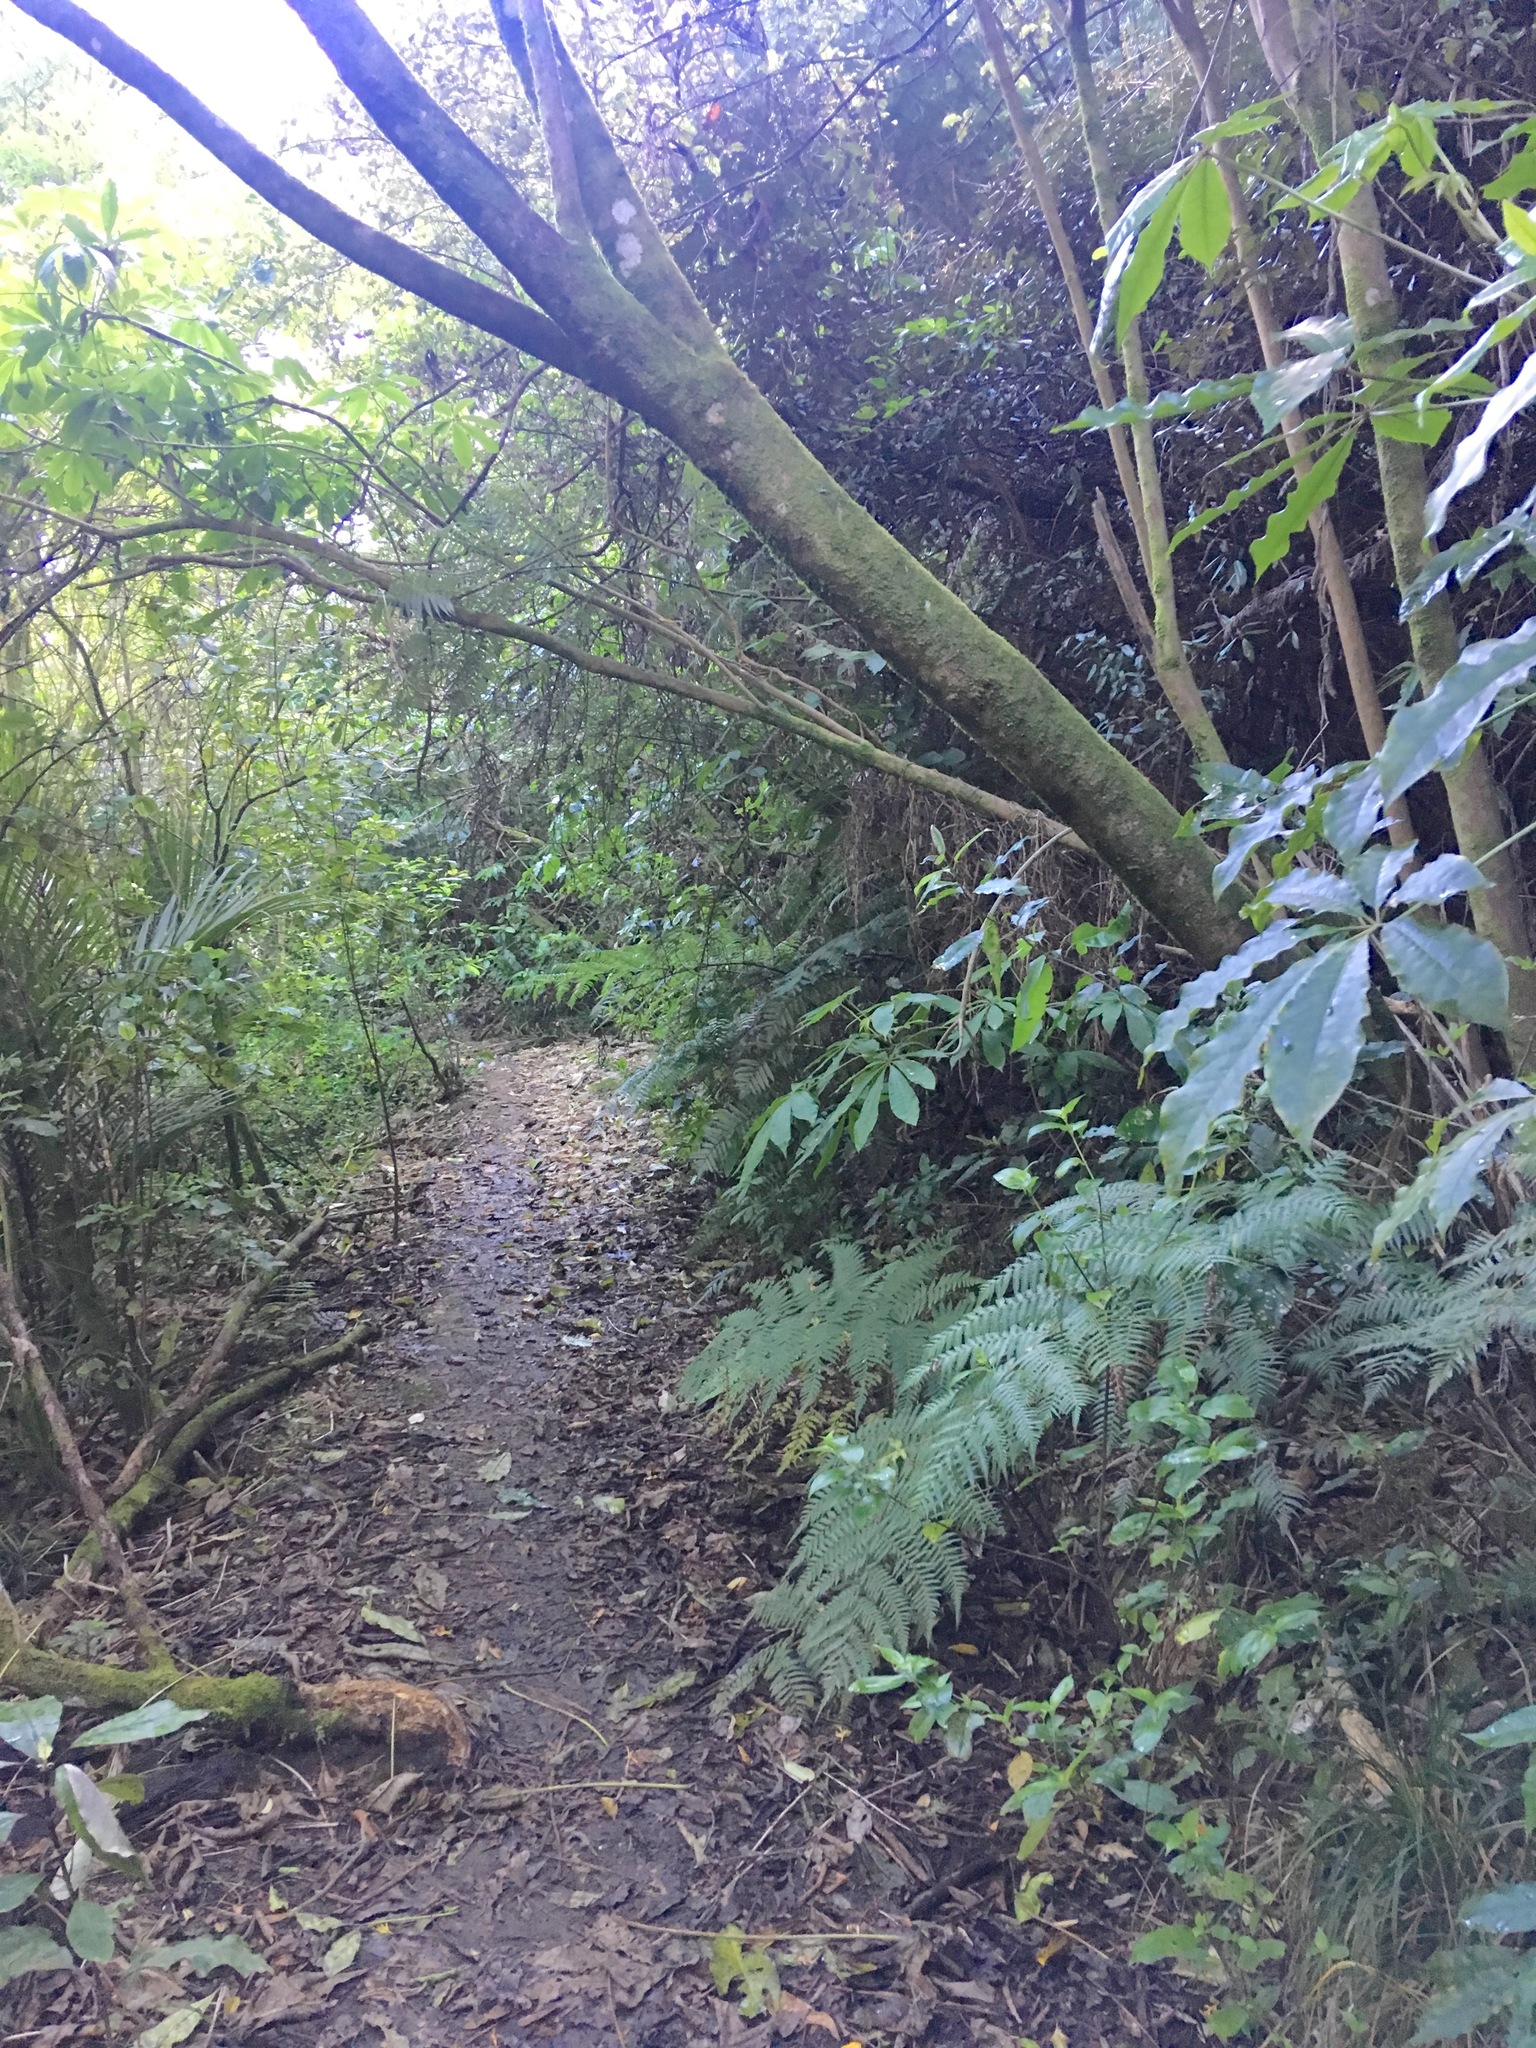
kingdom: Plantae
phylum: Tracheophyta
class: Magnoliopsida
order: Apiales
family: Araliaceae
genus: Schefflera
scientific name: Schefflera digitata
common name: Pate
